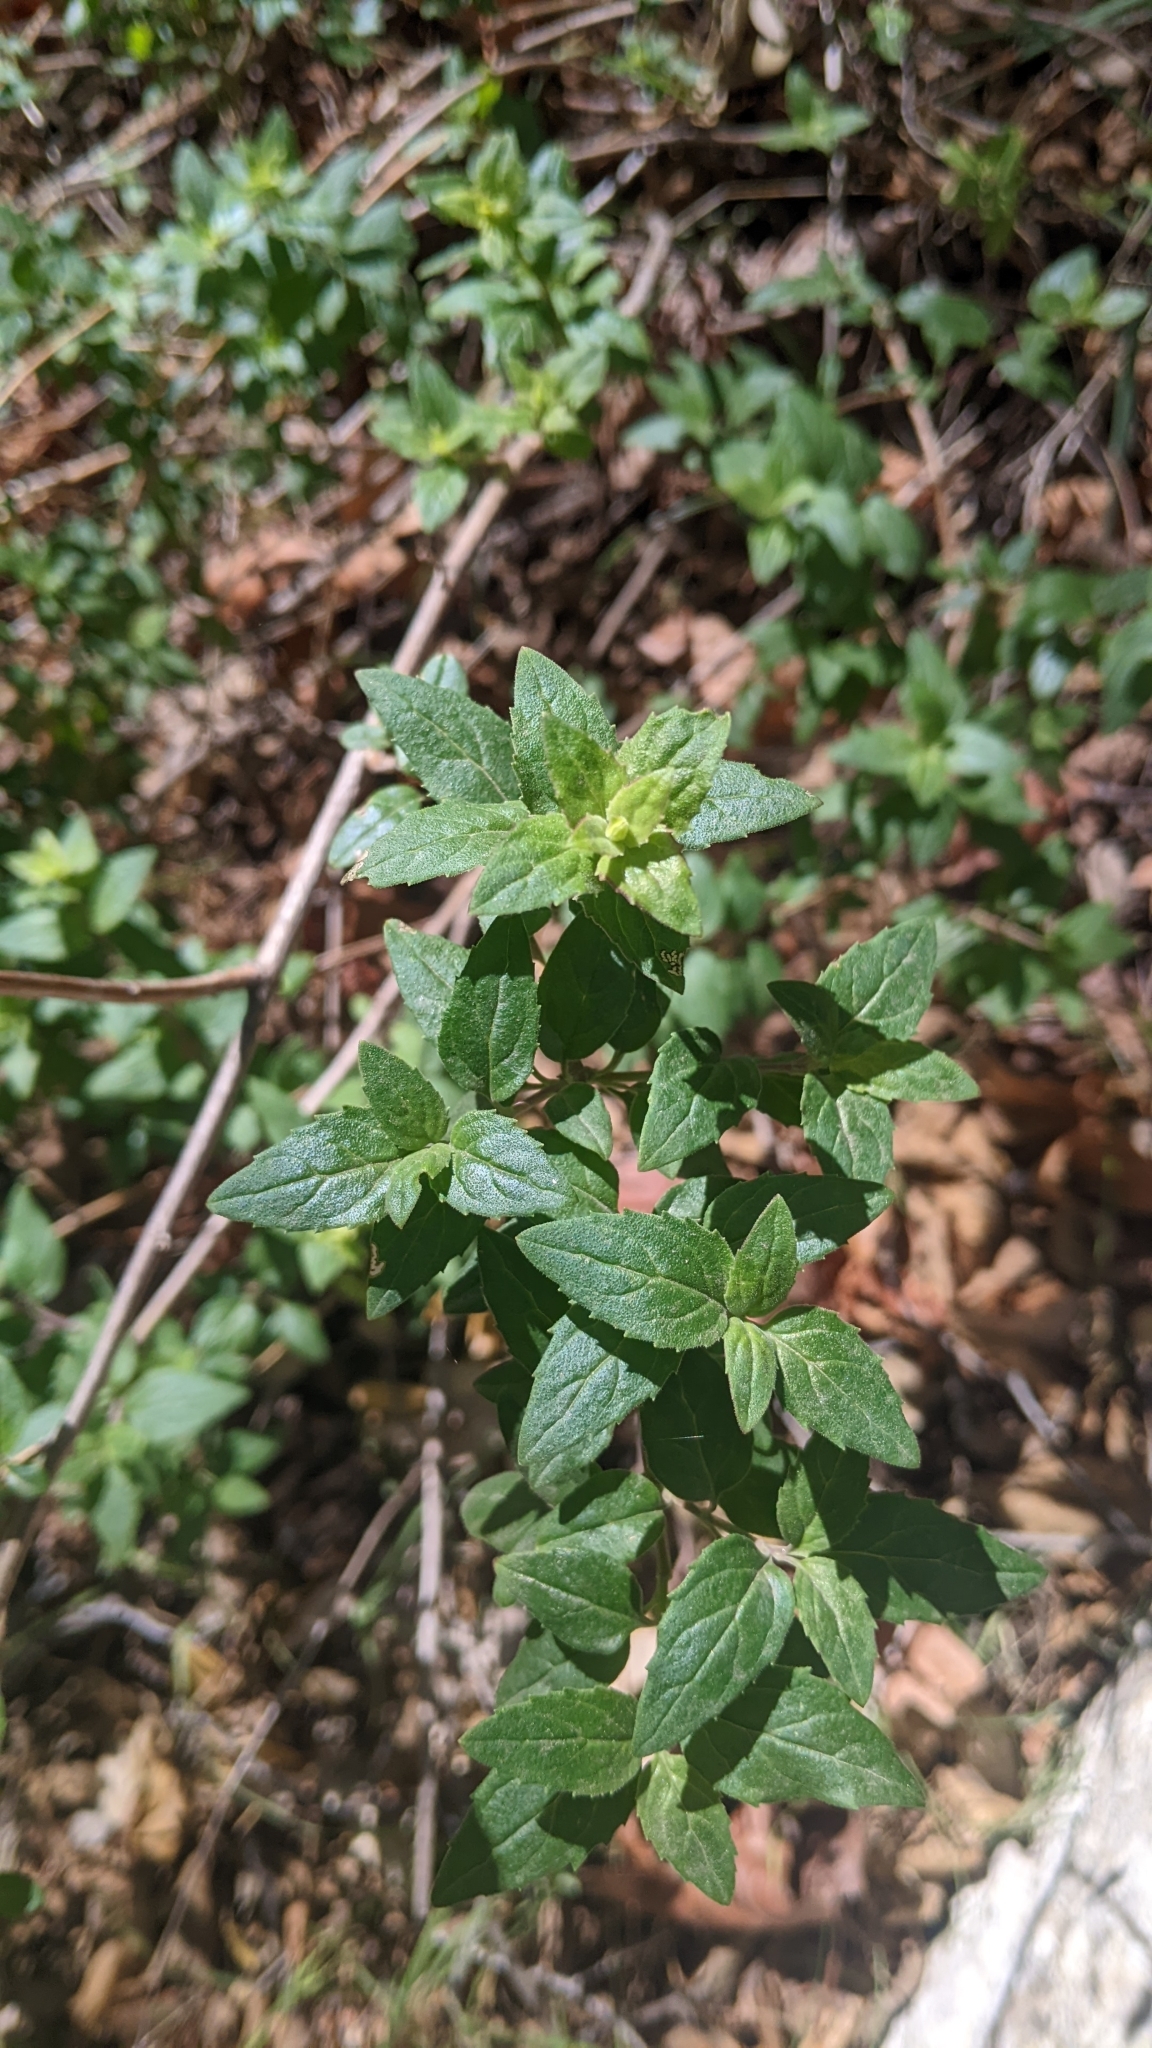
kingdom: Plantae
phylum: Tracheophyta
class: Magnoliopsida
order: Lamiales
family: Plantaginaceae
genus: Keckiella
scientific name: Keckiella cordifolia
